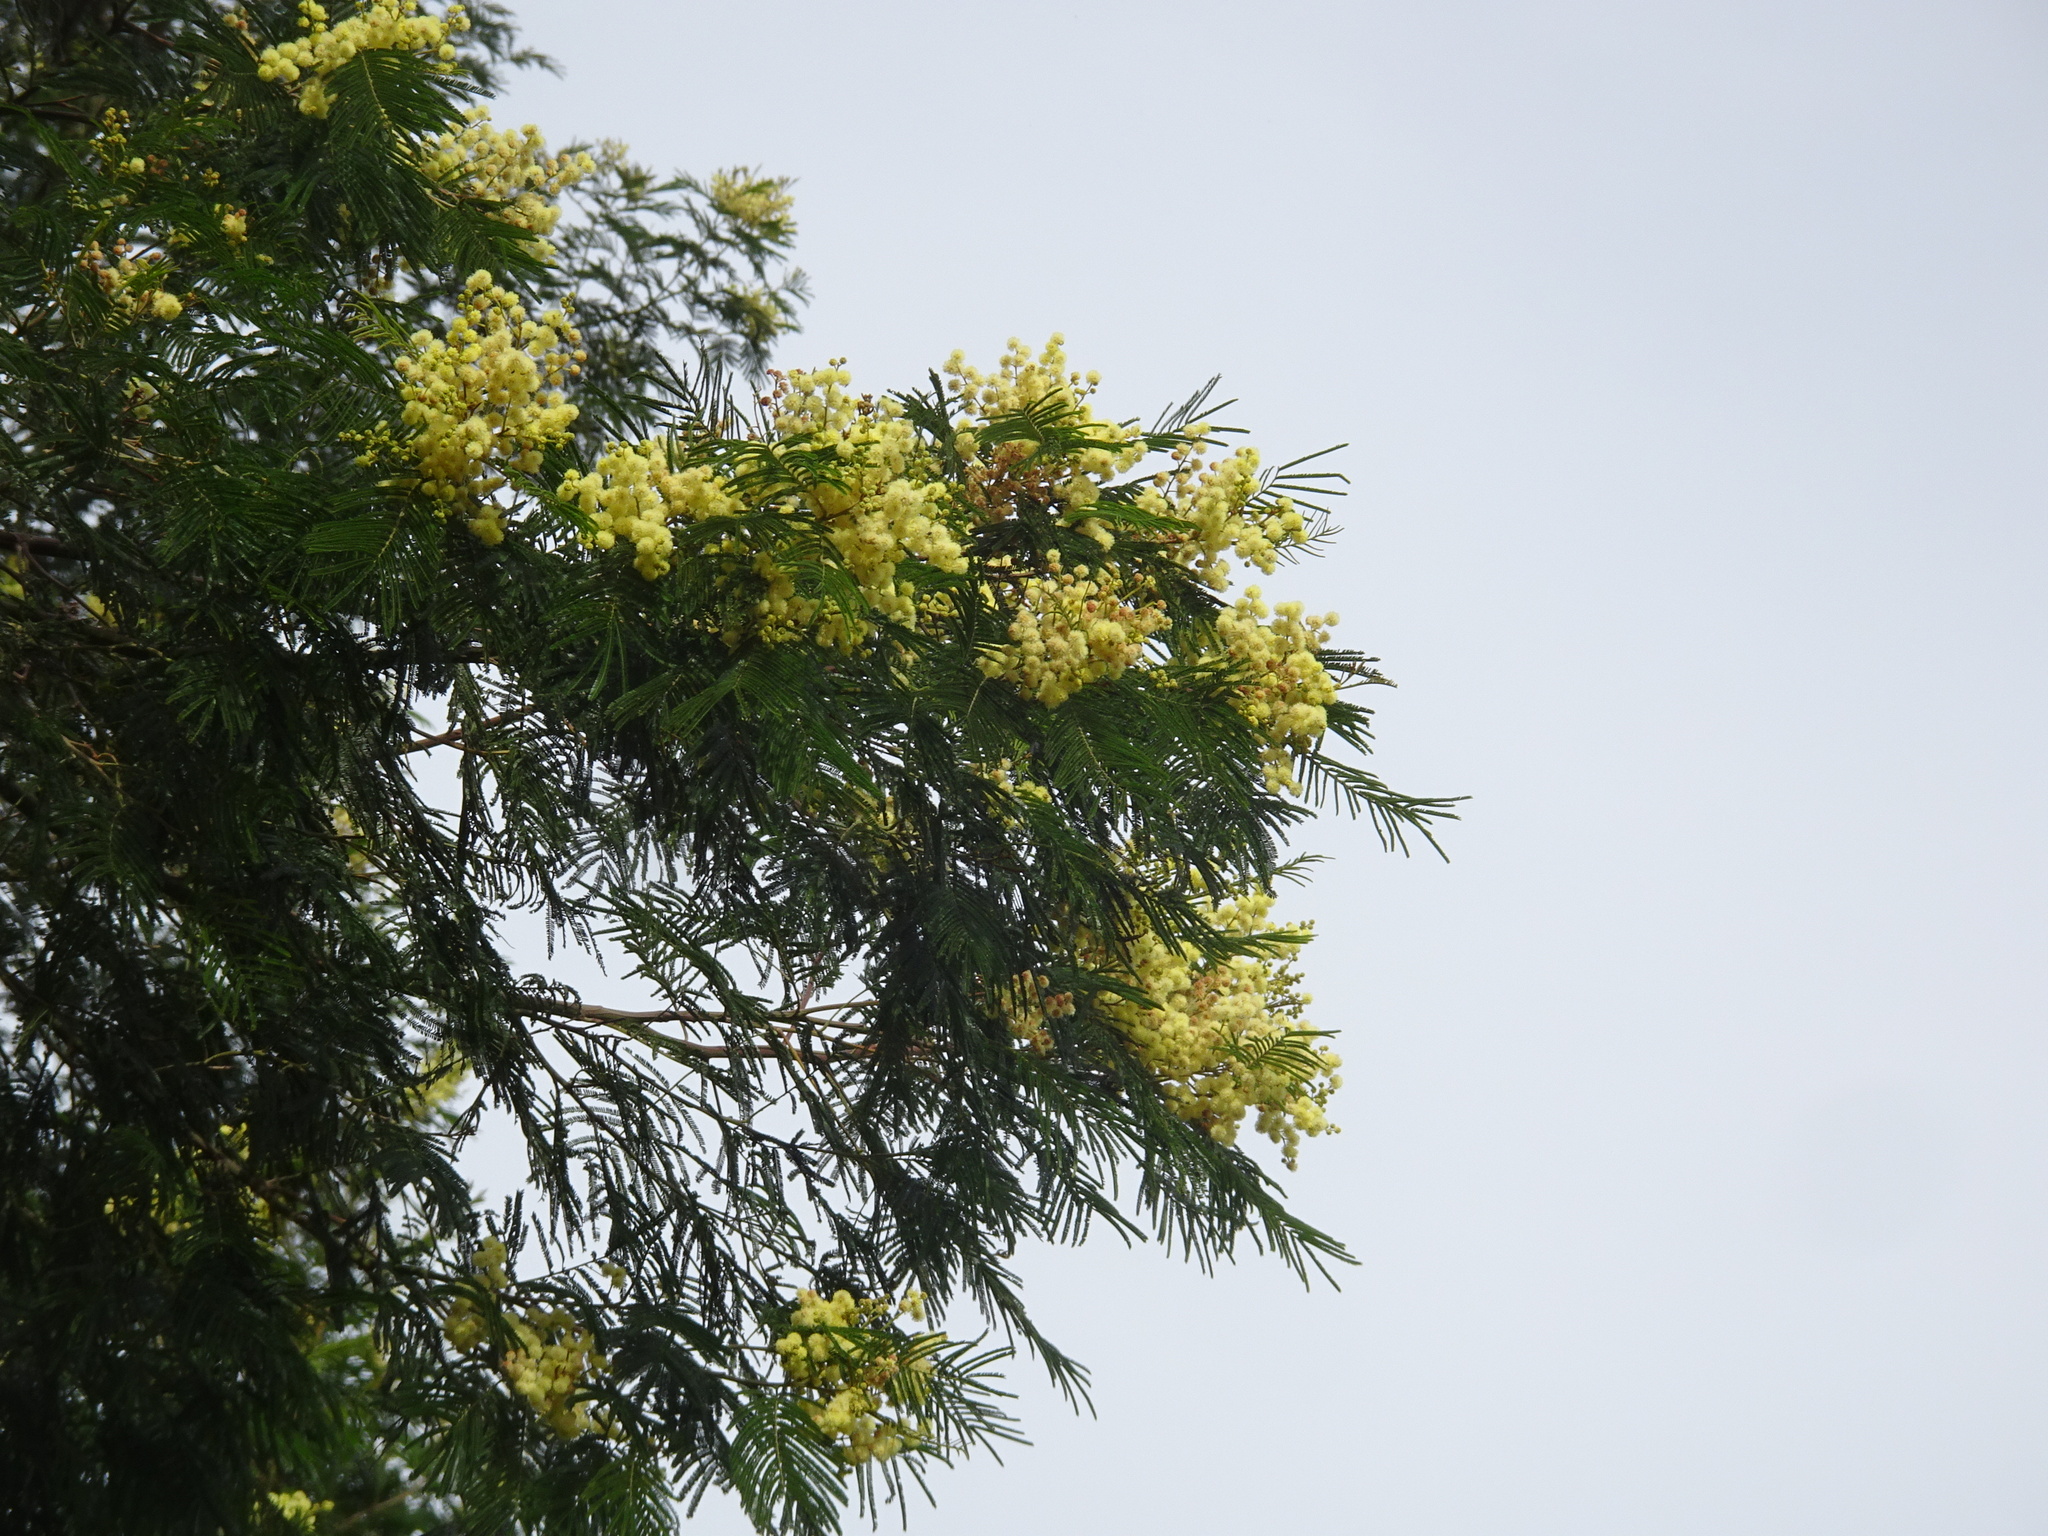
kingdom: Plantae
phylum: Tracheophyta
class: Magnoliopsida
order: Fabales
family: Fabaceae
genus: Acacia
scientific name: Acacia mearnsii
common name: Black wattle
